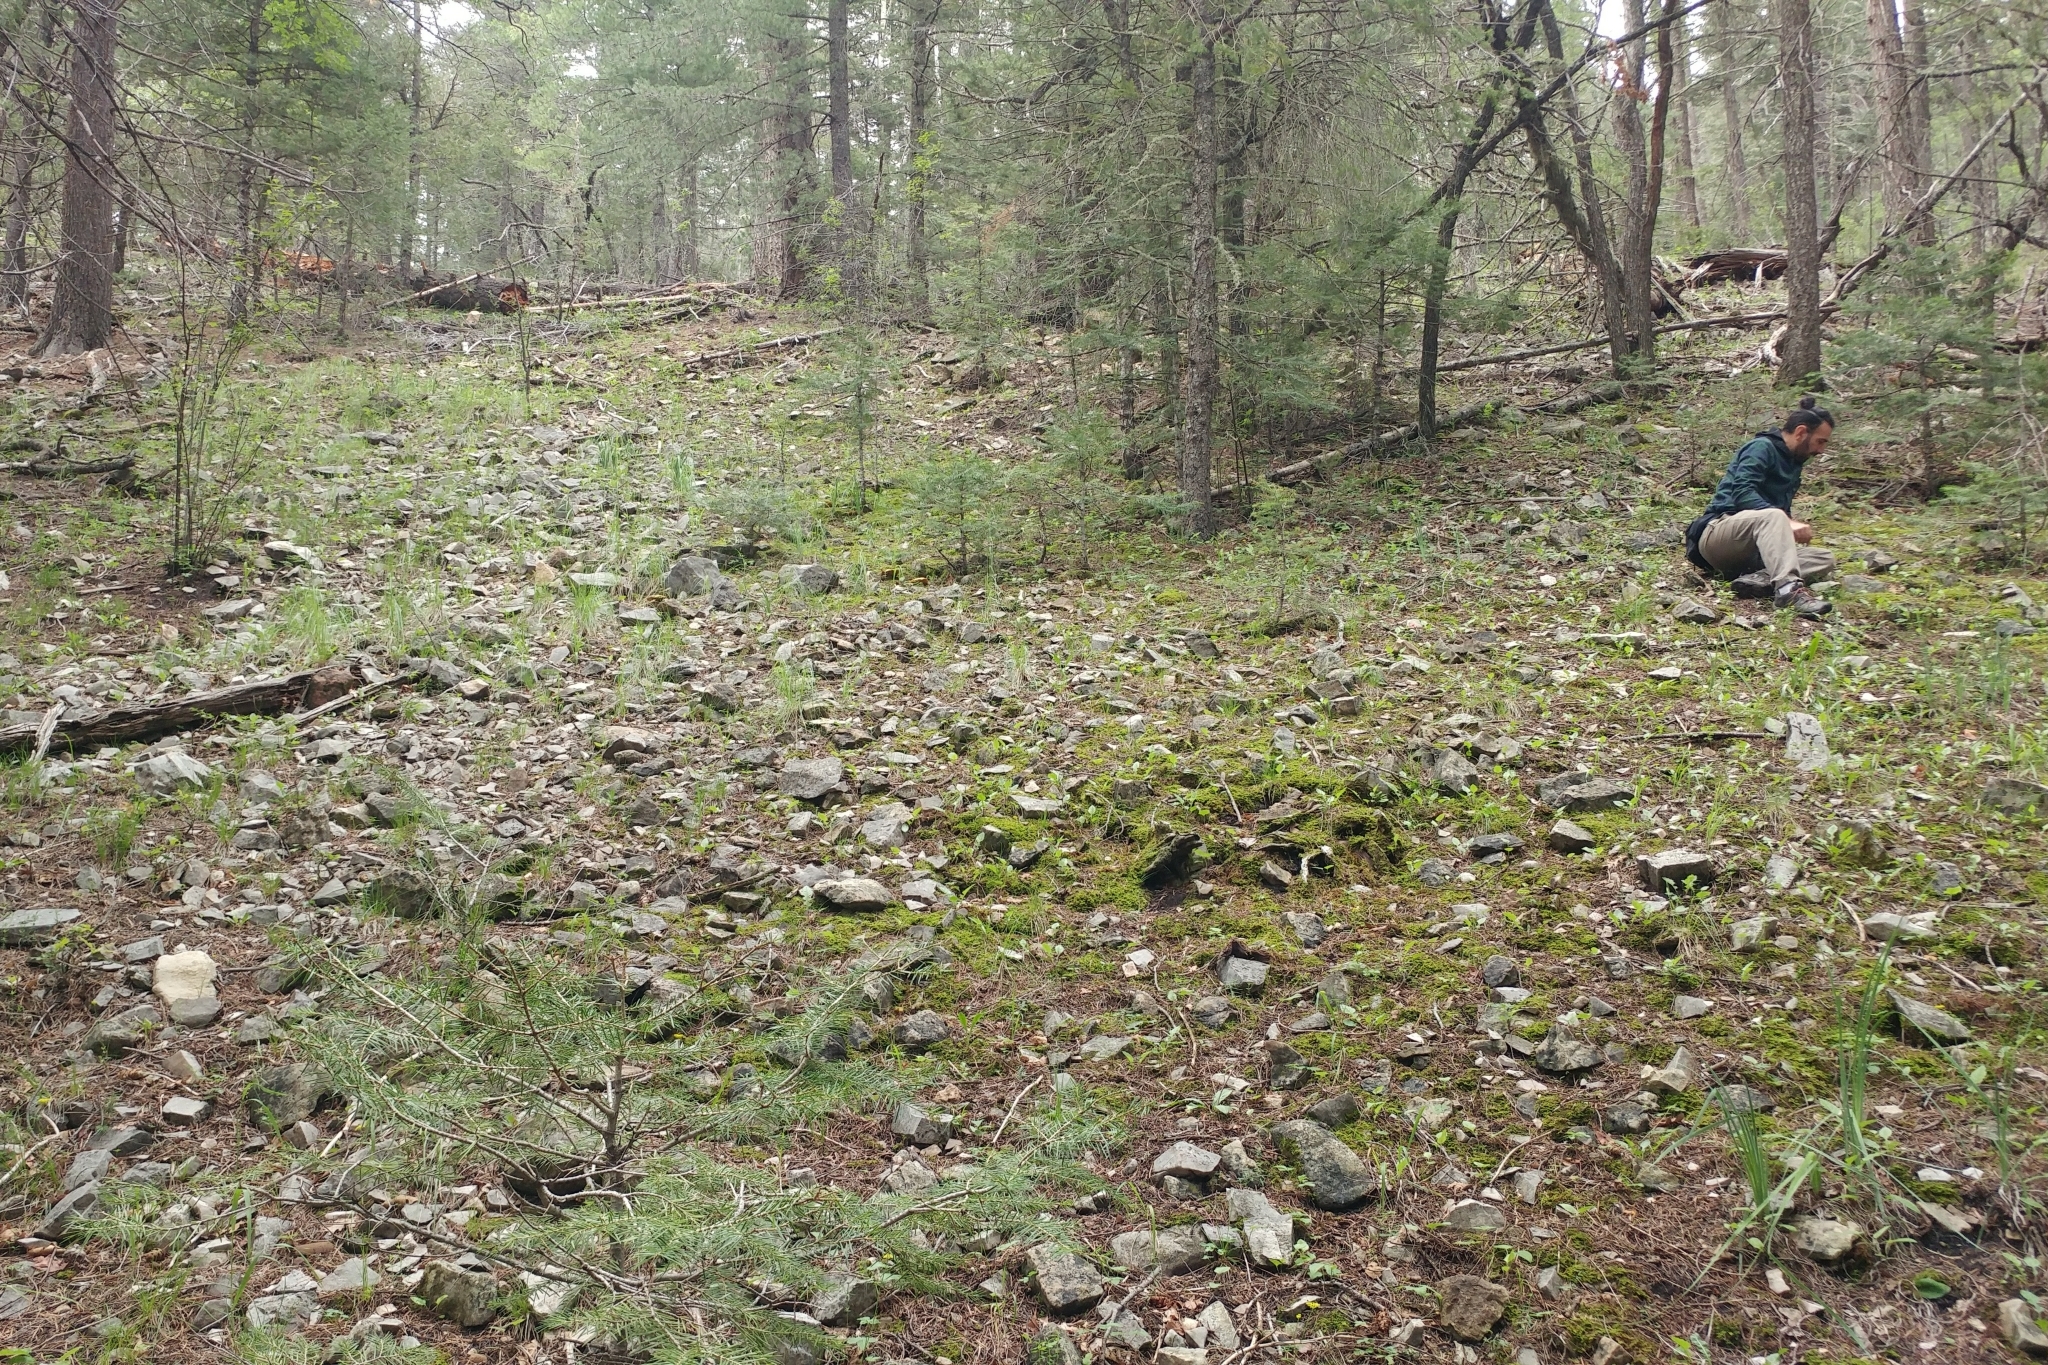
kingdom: Plantae
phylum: Tracheophyta
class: Pinopsida
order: Pinales
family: Pinaceae
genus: Abies
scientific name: Abies concolor
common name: Colorado fir
